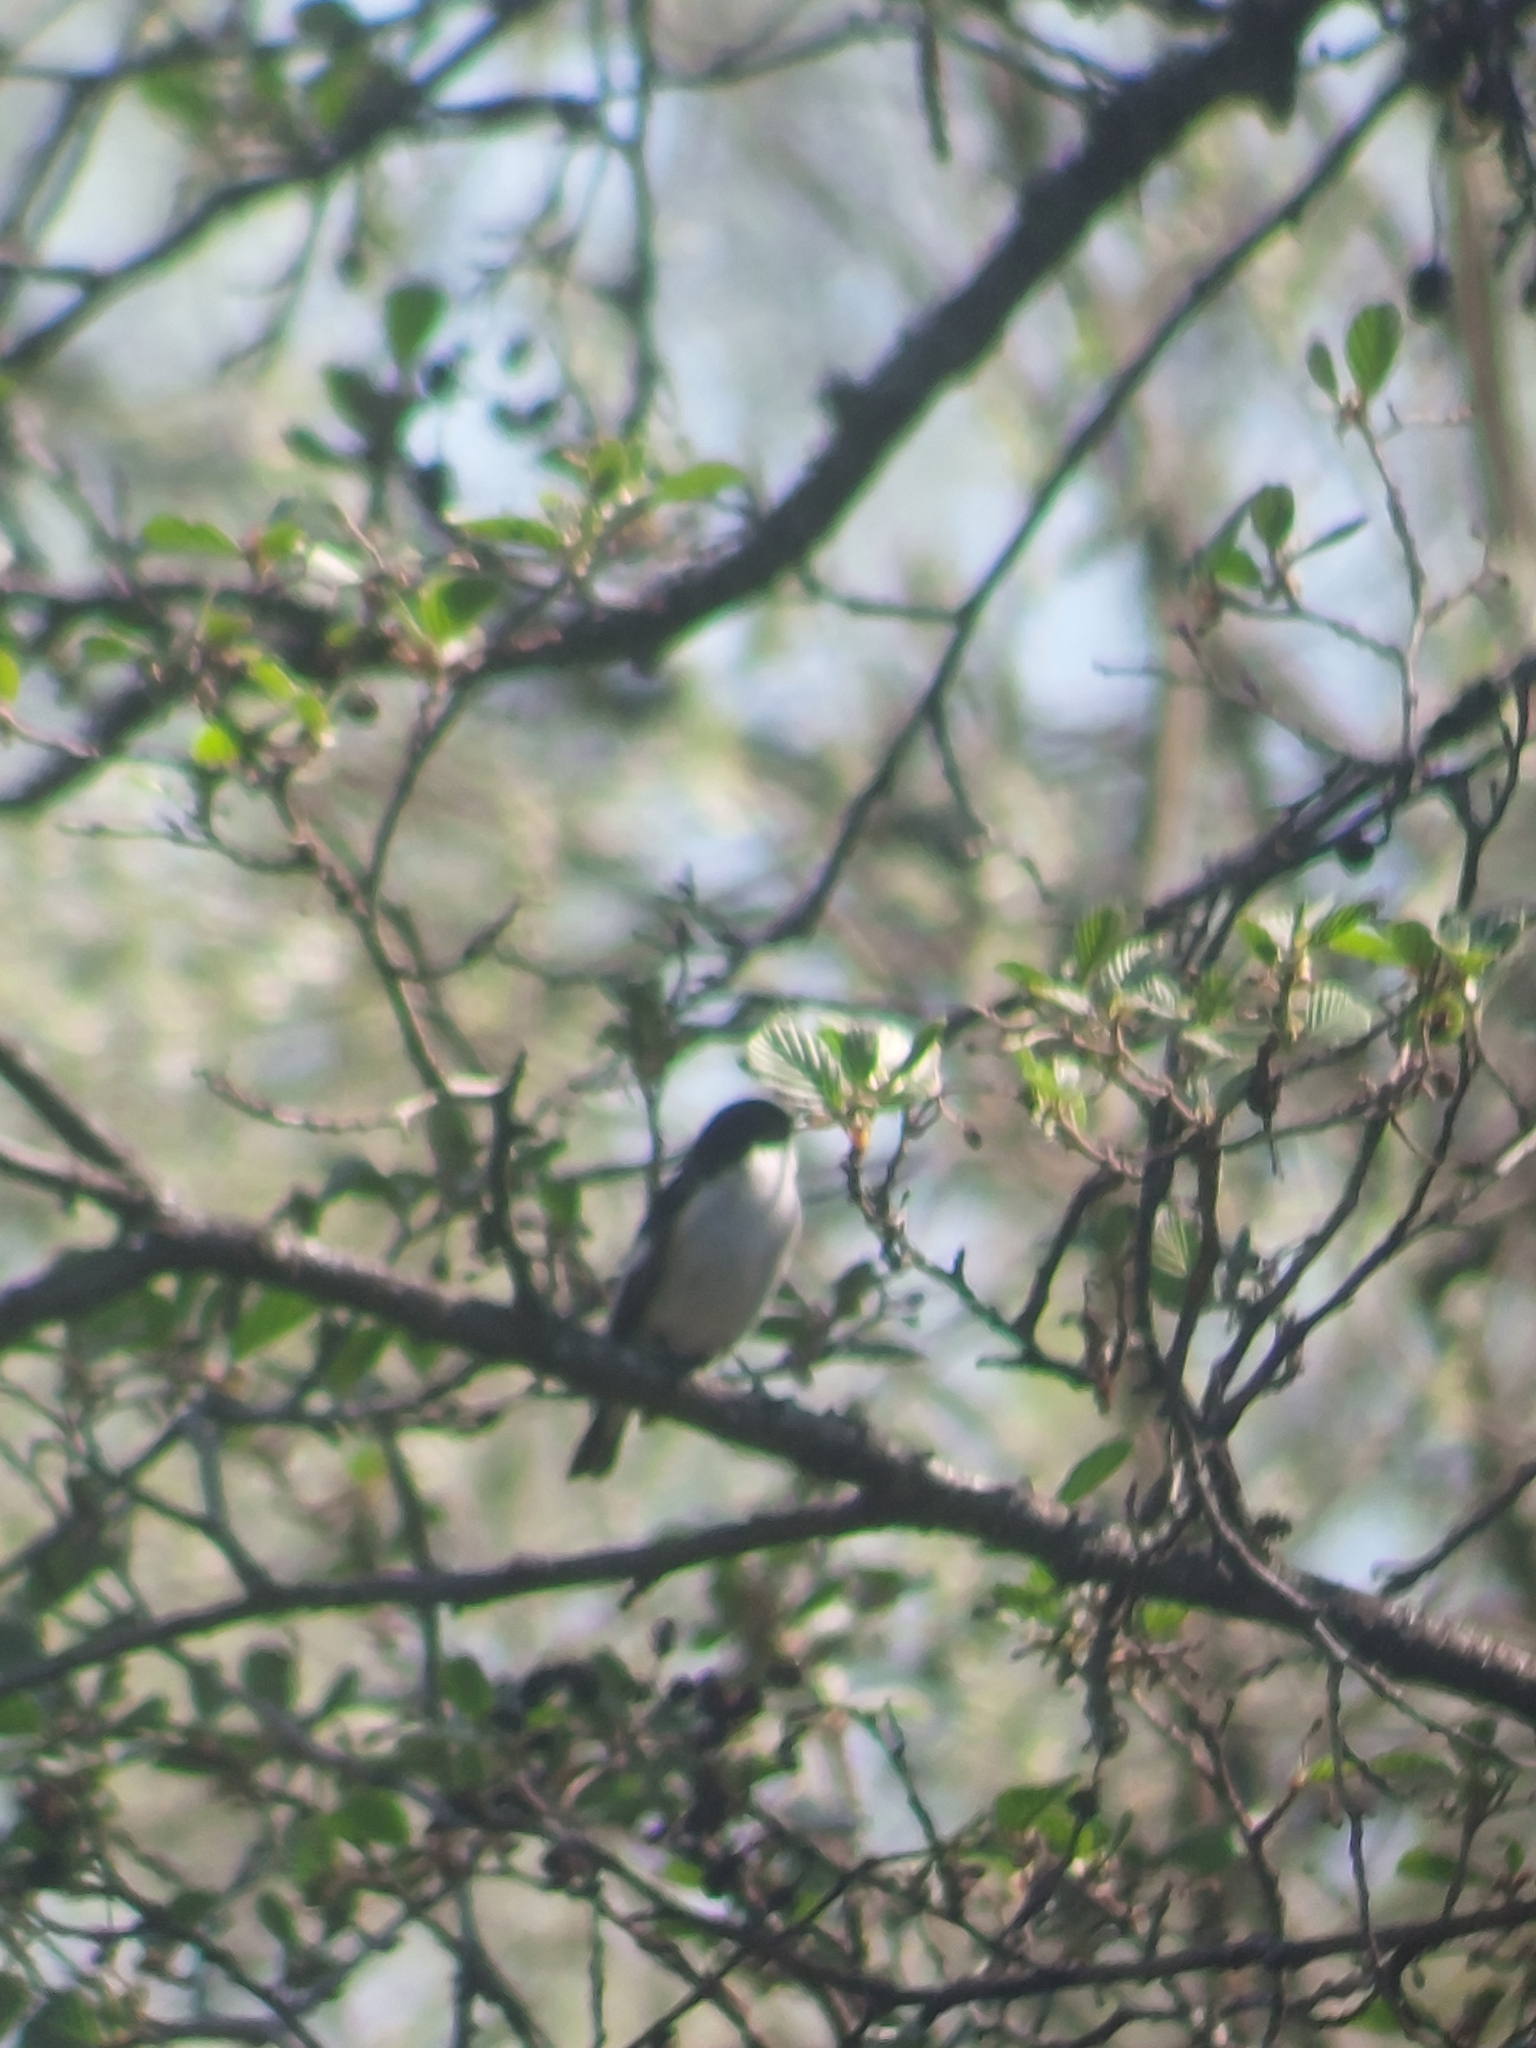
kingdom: Animalia
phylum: Chordata
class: Aves
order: Passeriformes
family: Muscicapidae
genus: Ficedula
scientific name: Ficedula hypoleuca
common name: European pied flycatcher
